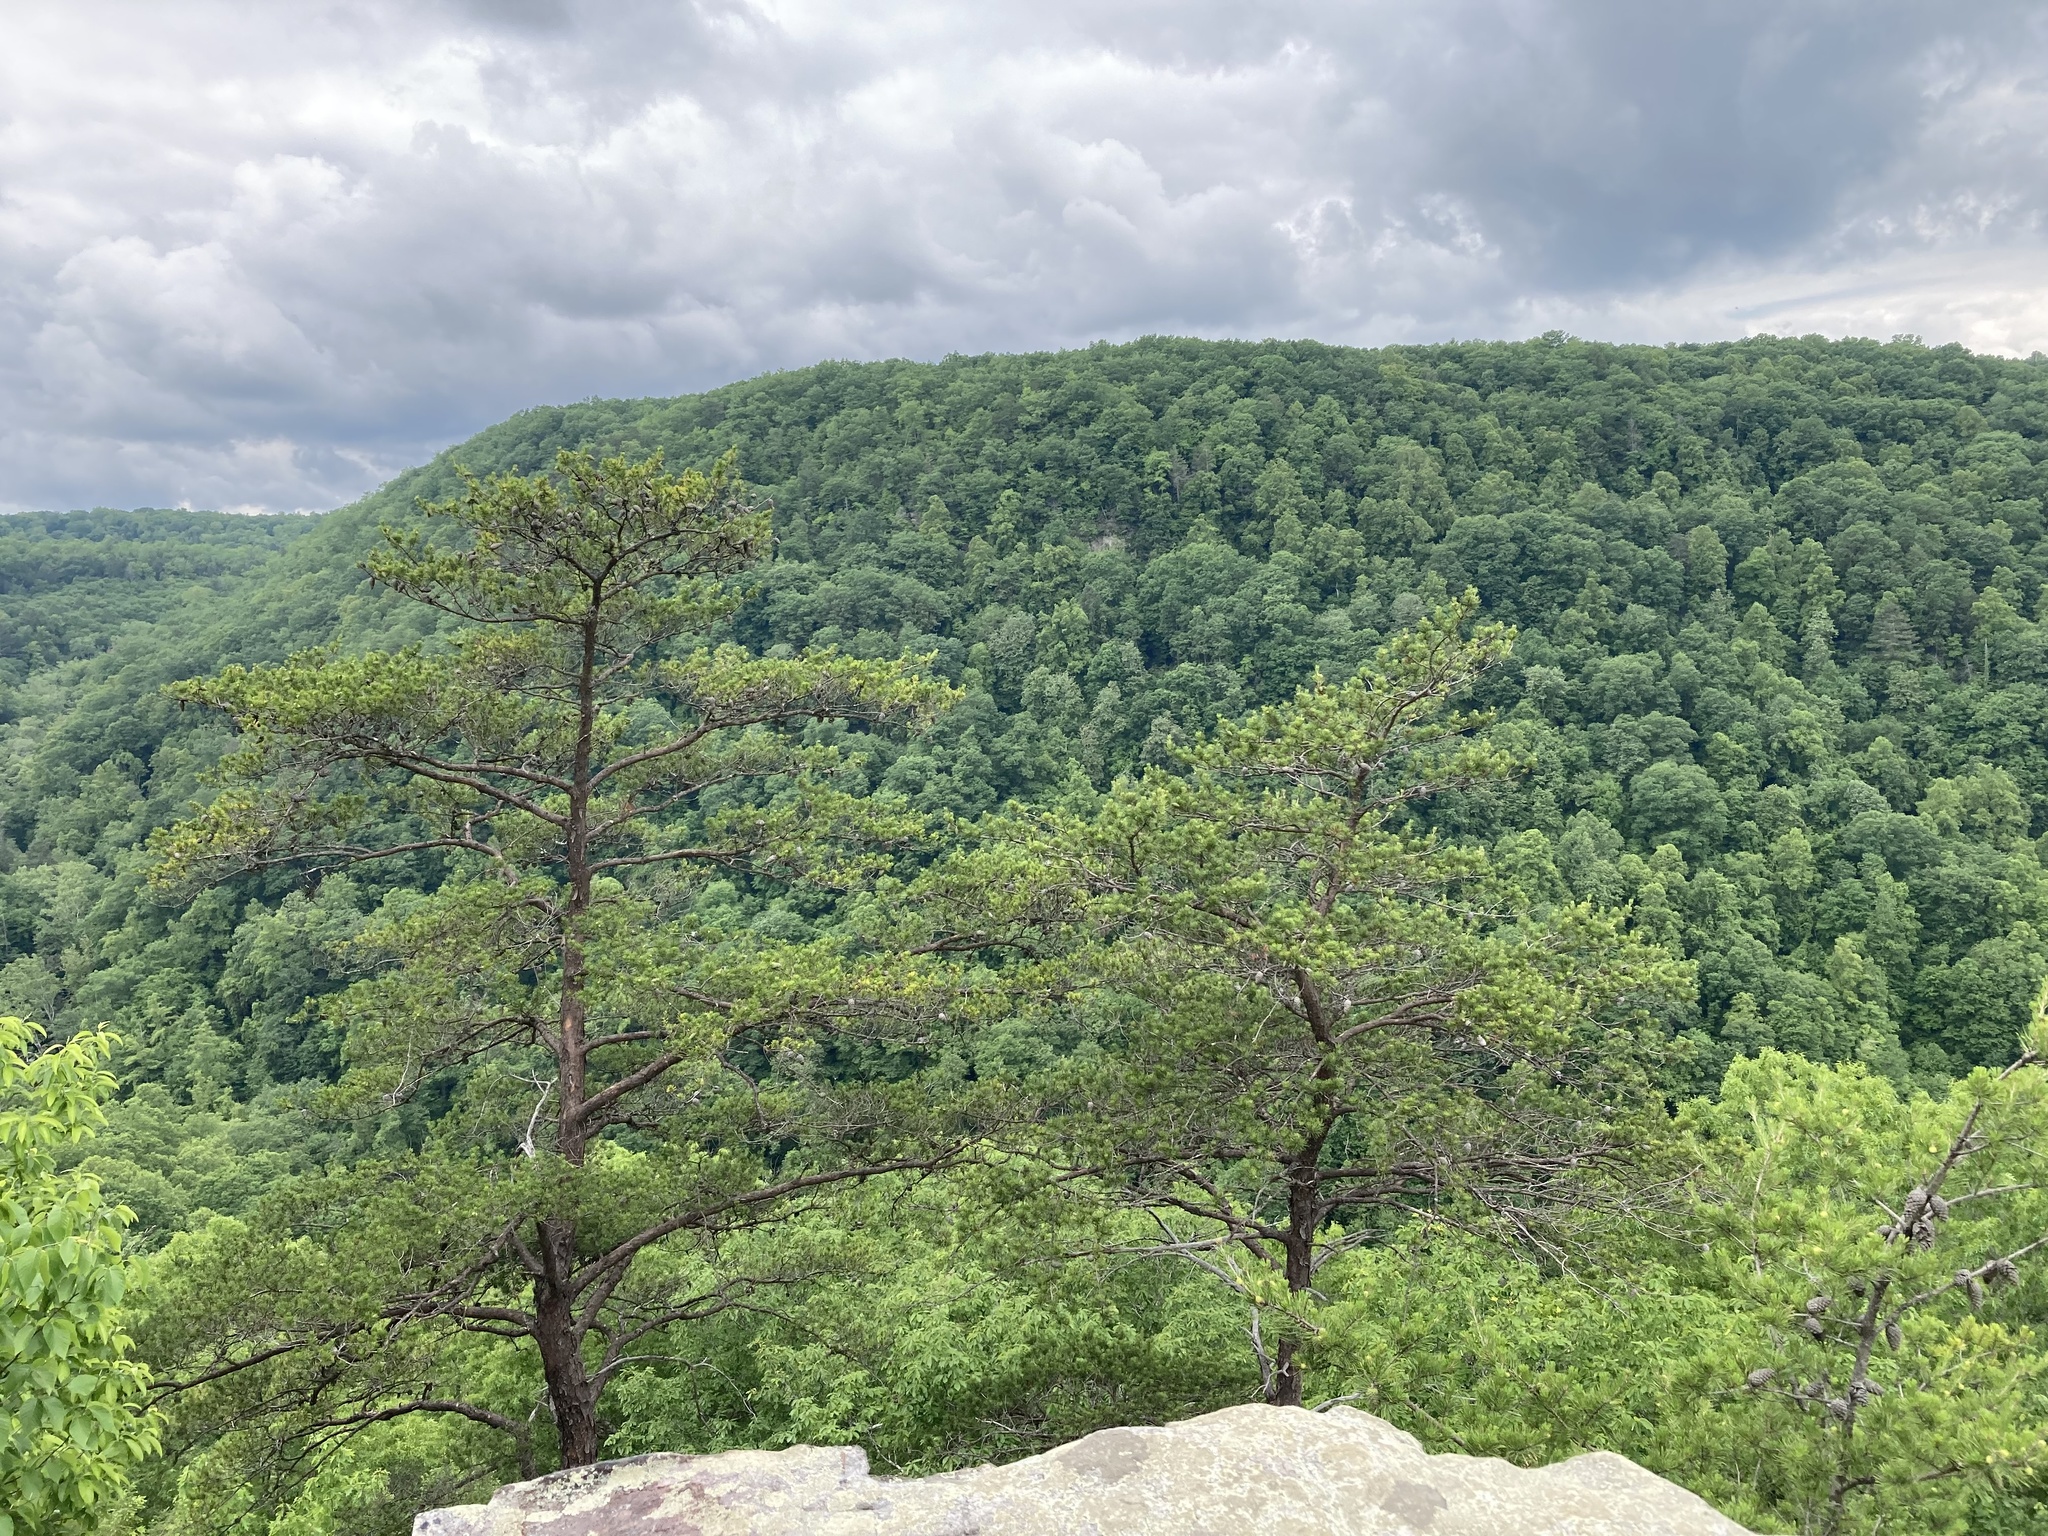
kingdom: Plantae
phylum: Tracheophyta
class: Pinopsida
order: Pinales
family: Pinaceae
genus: Pinus
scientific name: Pinus virginiana
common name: Scrub pine
